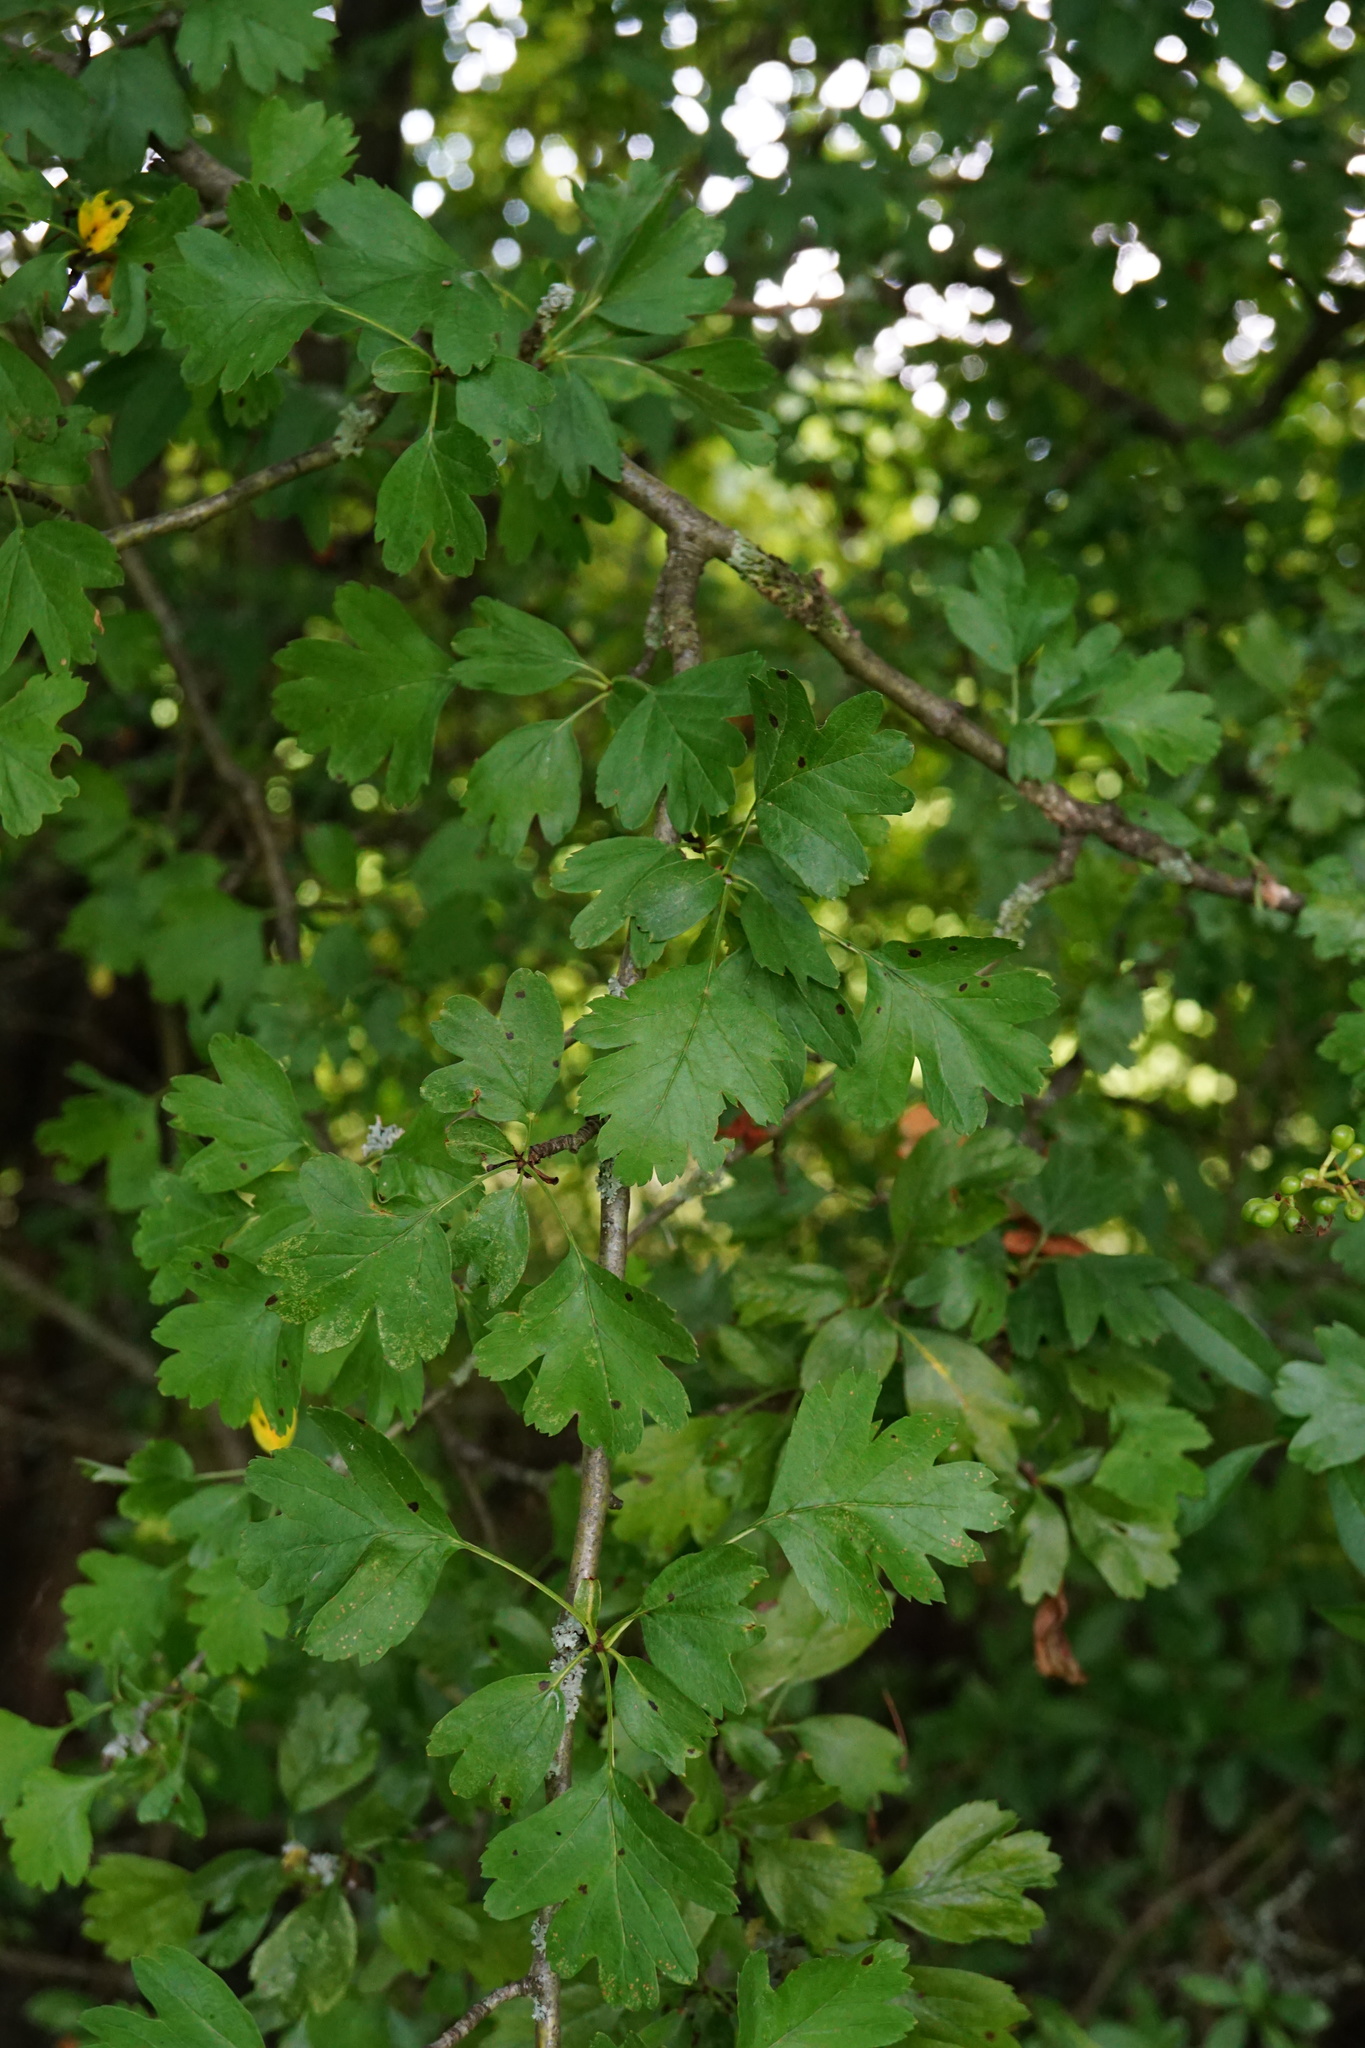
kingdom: Plantae
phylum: Tracheophyta
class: Magnoliopsida
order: Rosales
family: Rosaceae
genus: Crataegus
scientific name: Crataegus monogyna
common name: Hawthorn
